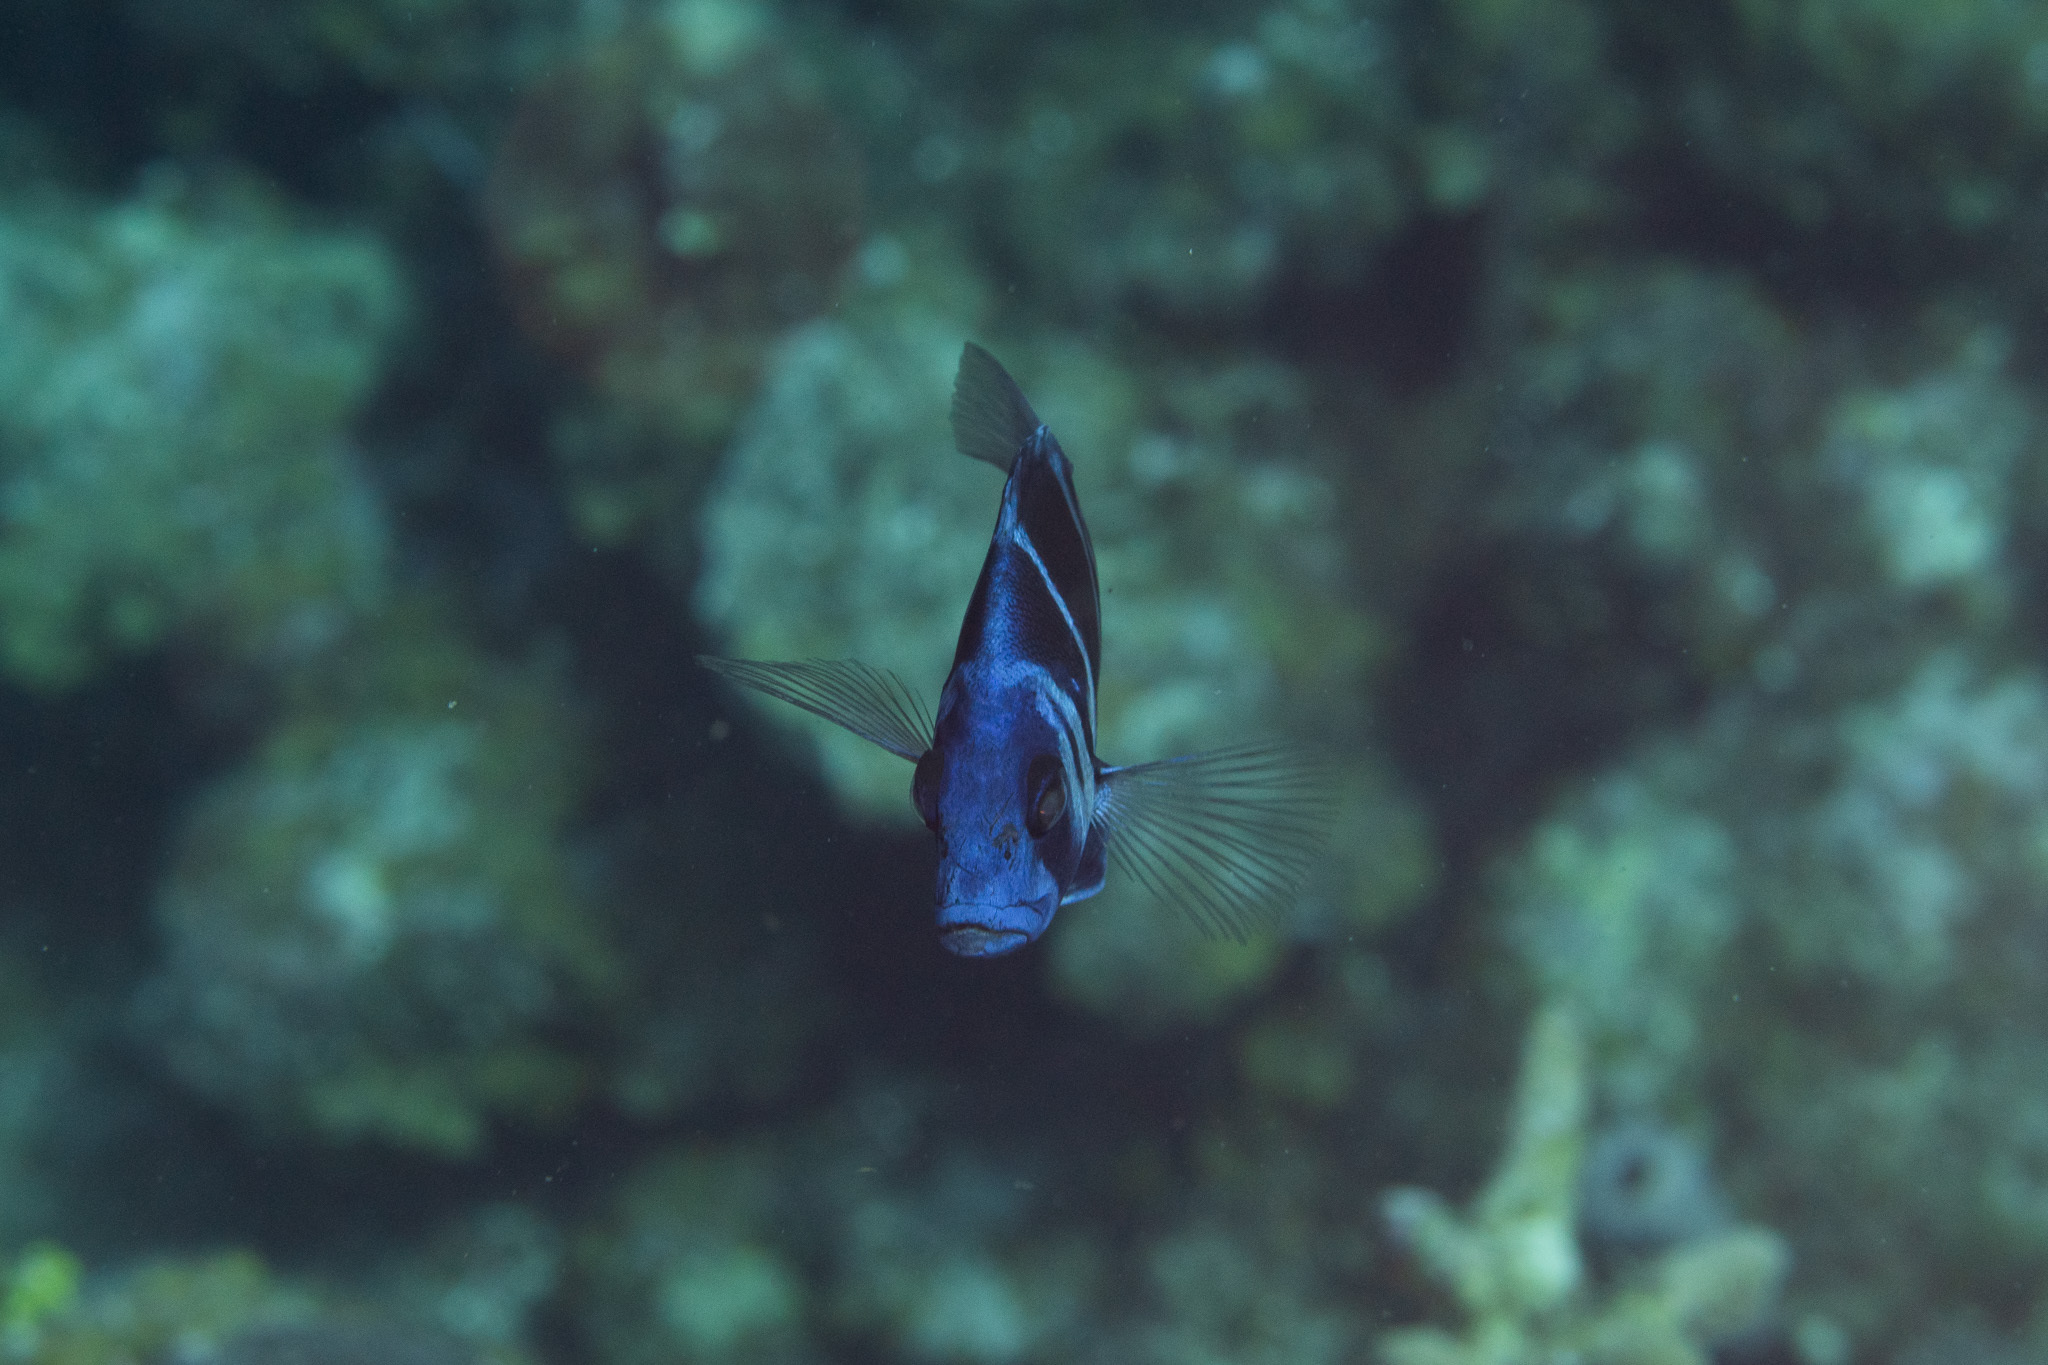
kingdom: Animalia
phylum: Chordata
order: Perciformes
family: Serranidae
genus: Hypoplectrus
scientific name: Hypoplectrus indigo
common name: Indigo hamlet
